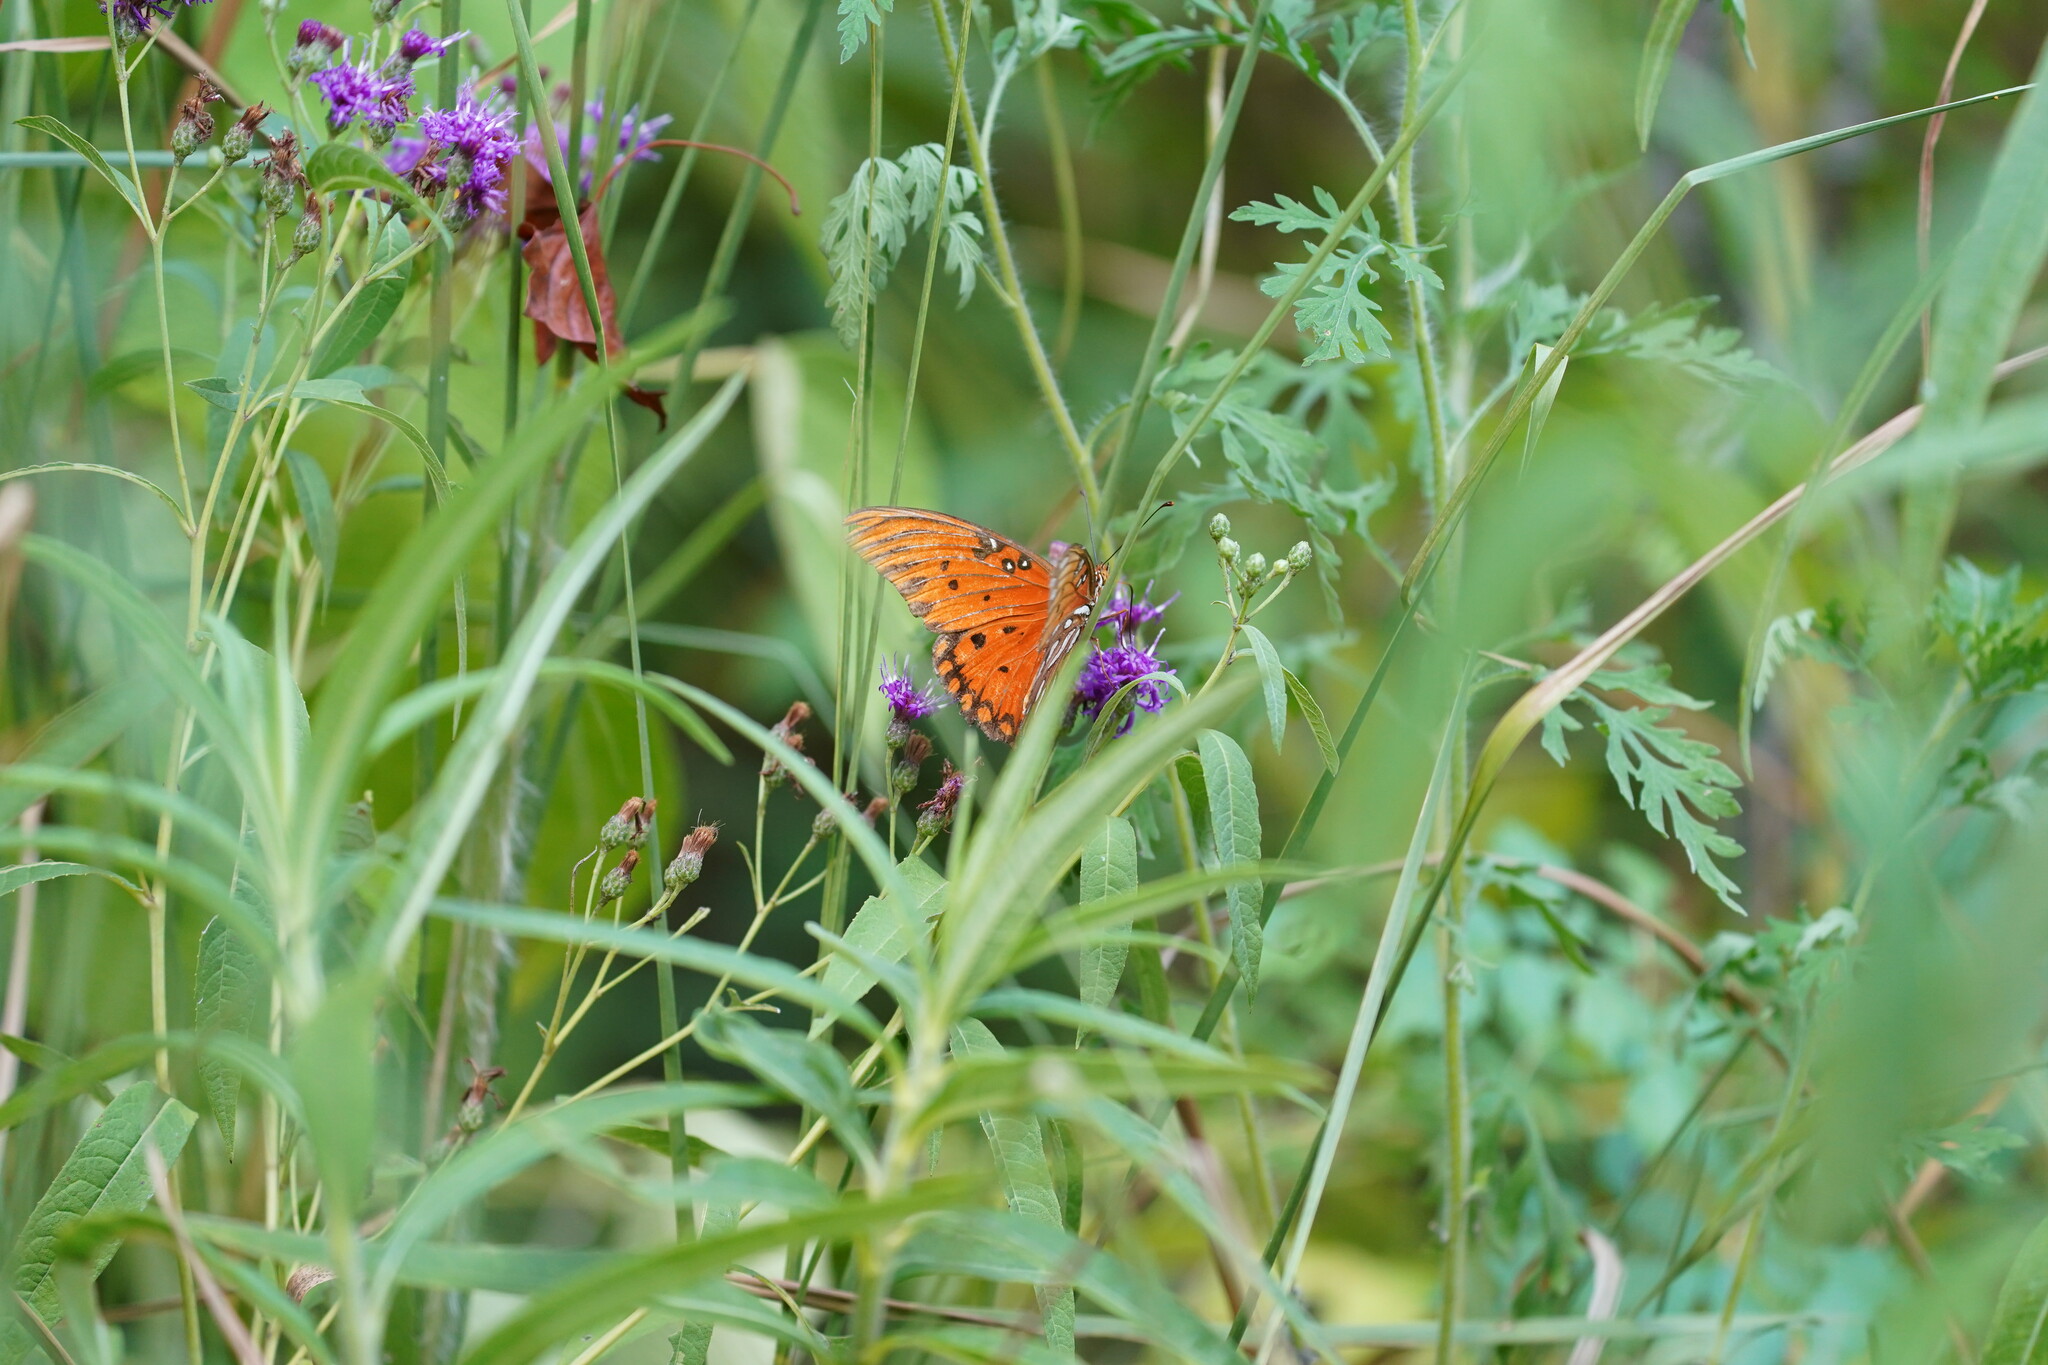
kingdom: Animalia
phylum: Arthropoda
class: Insecta
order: Lepidoptera
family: Nymphalidae
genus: Dione
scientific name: Dione vanillae
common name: Gulf fritillary
